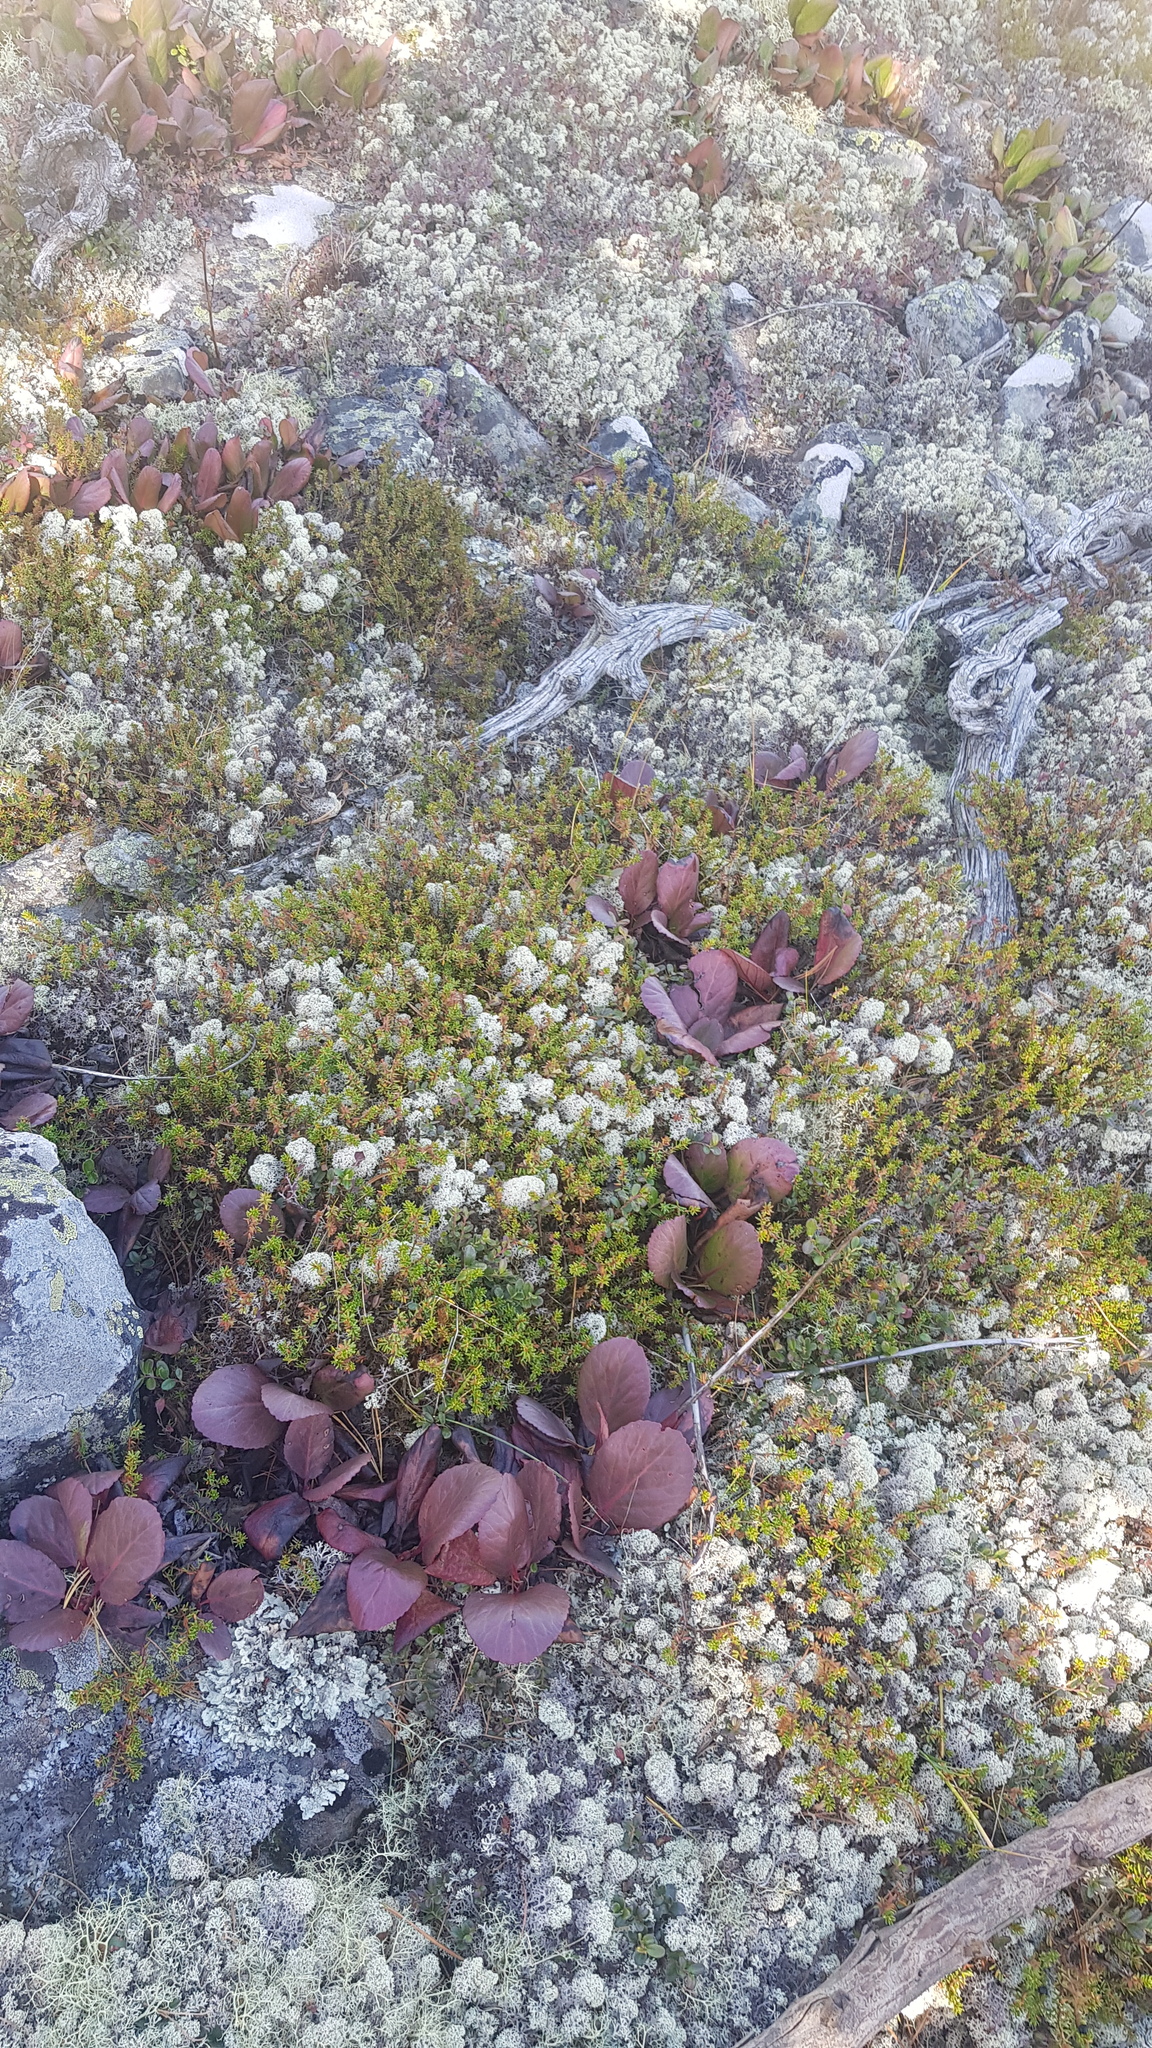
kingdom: Plantae
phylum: Tracheophyta
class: Magnoliopsida
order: Ericales
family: Ericaceae
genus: Empetrum
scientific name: Empetrum nigrum
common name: Black crowberry
